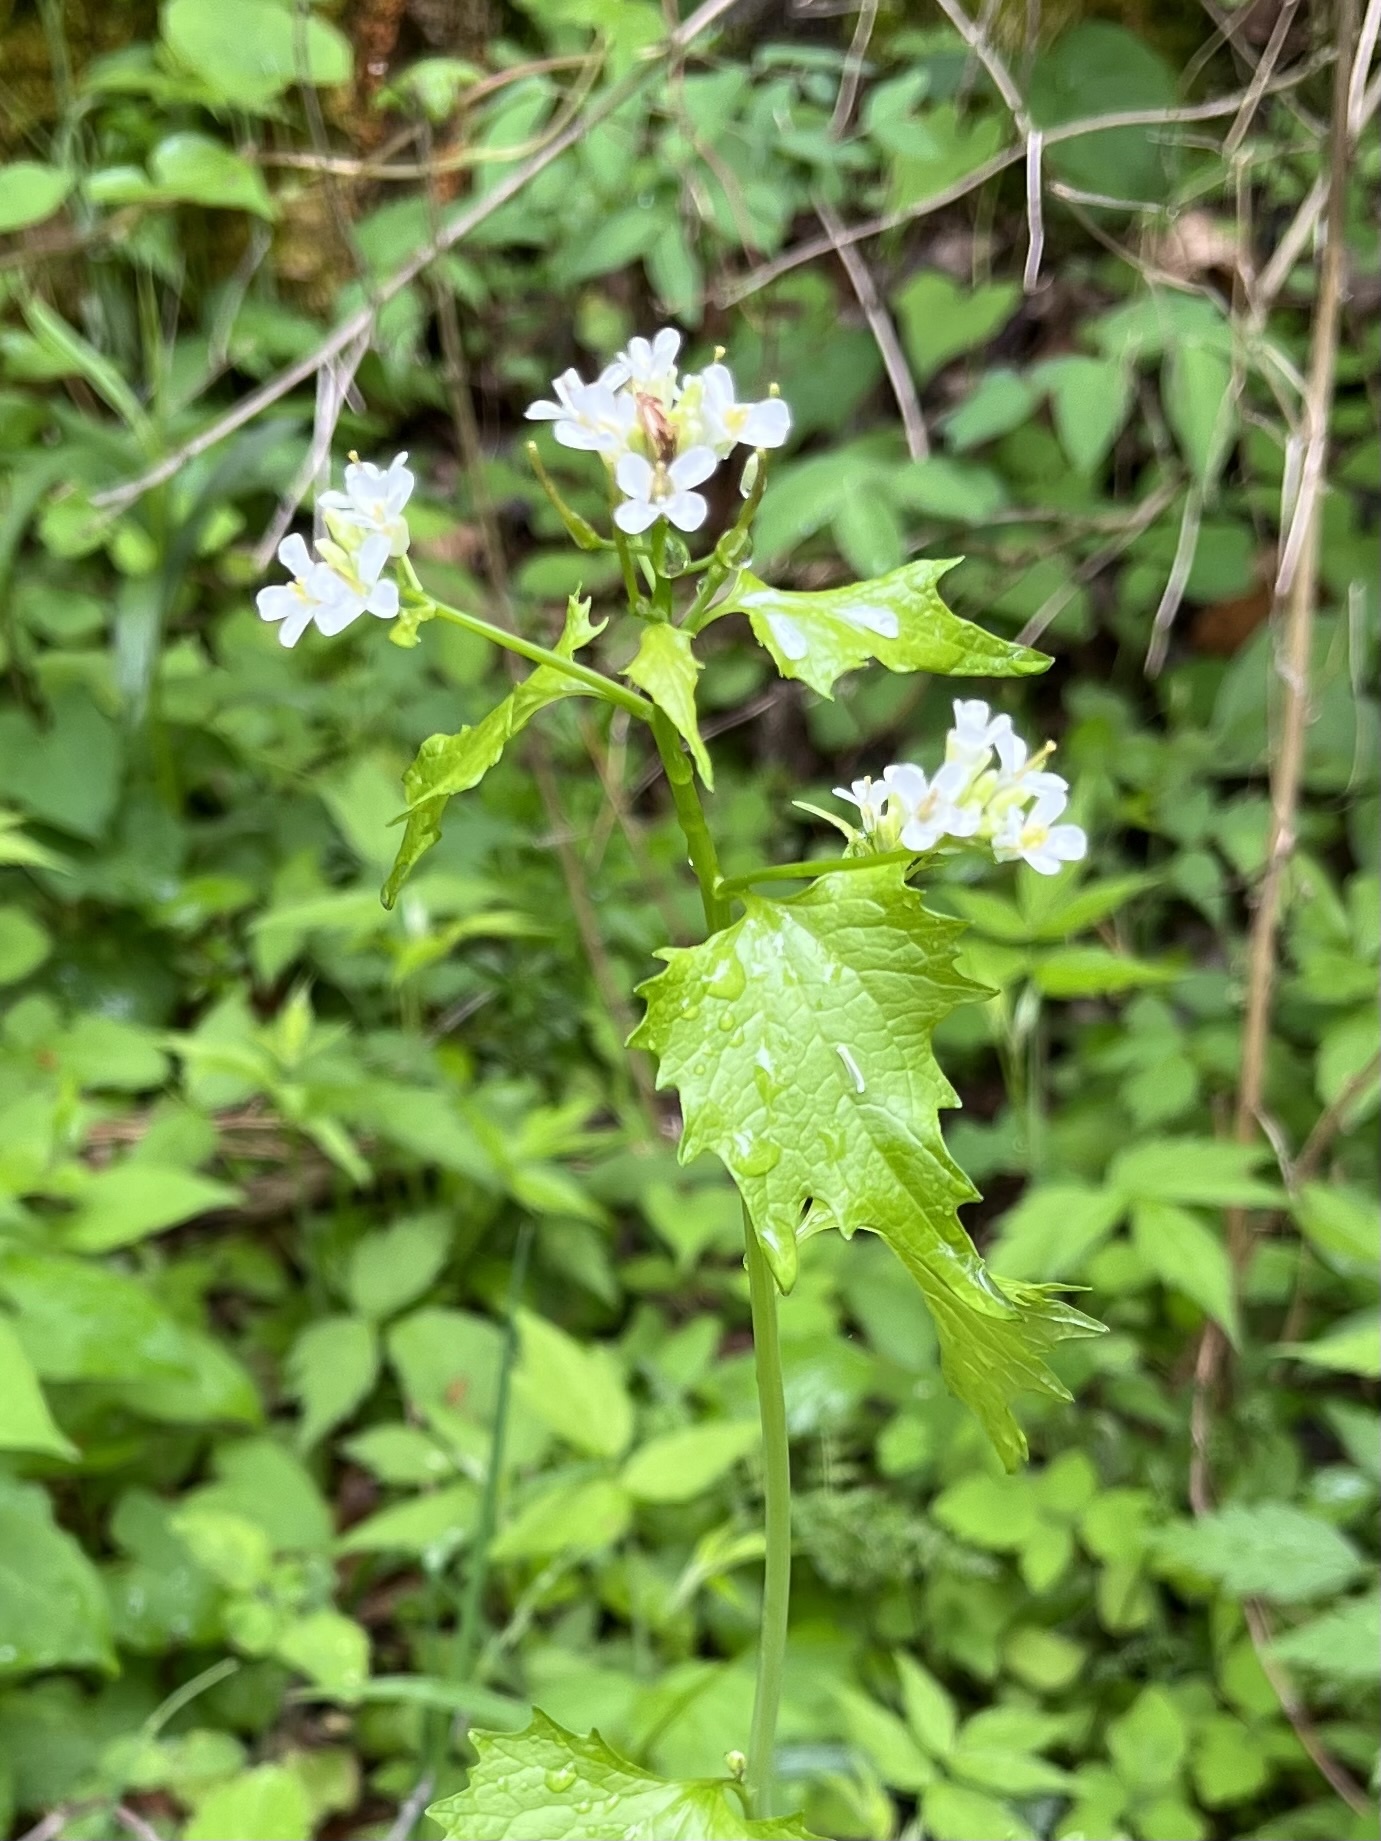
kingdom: Plantae
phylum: Tracheophyta
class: Magnoliopsida
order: Brassicales
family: Brassicaceae
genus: Alliaria
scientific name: Alliaria petiolata
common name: Garlic mustard
